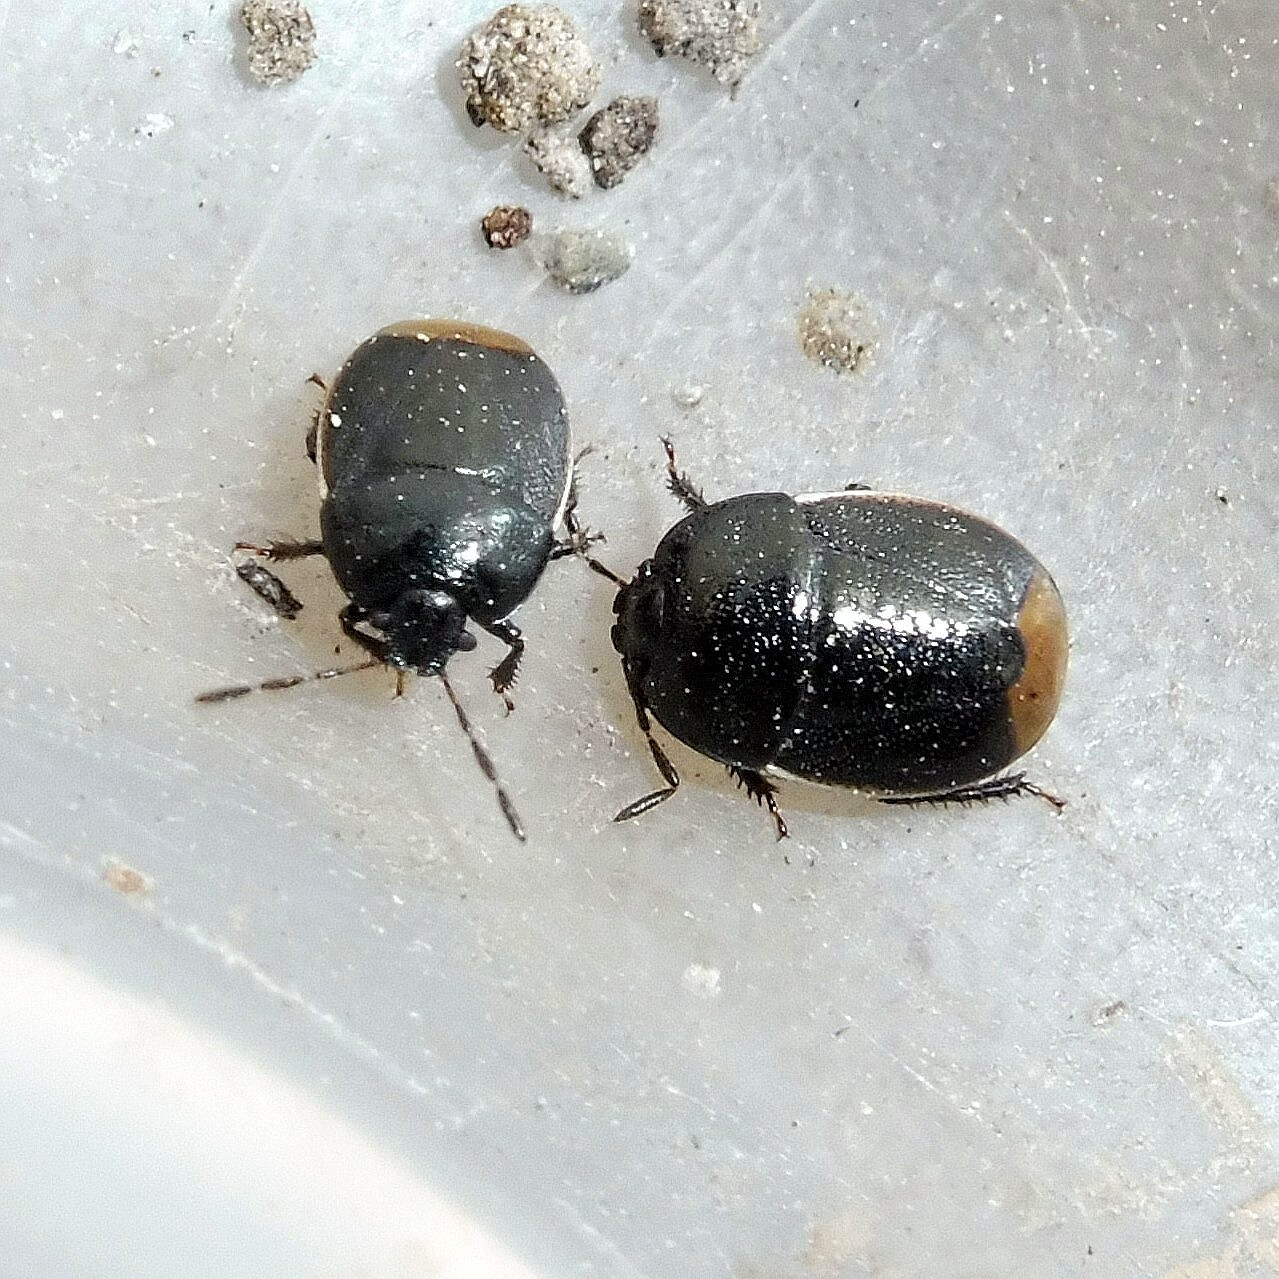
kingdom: Animalia
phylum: Arthropoda
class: Insecta
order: Hemiptera
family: Cydnidae
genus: Legnotus
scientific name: Legnotus limbosus
